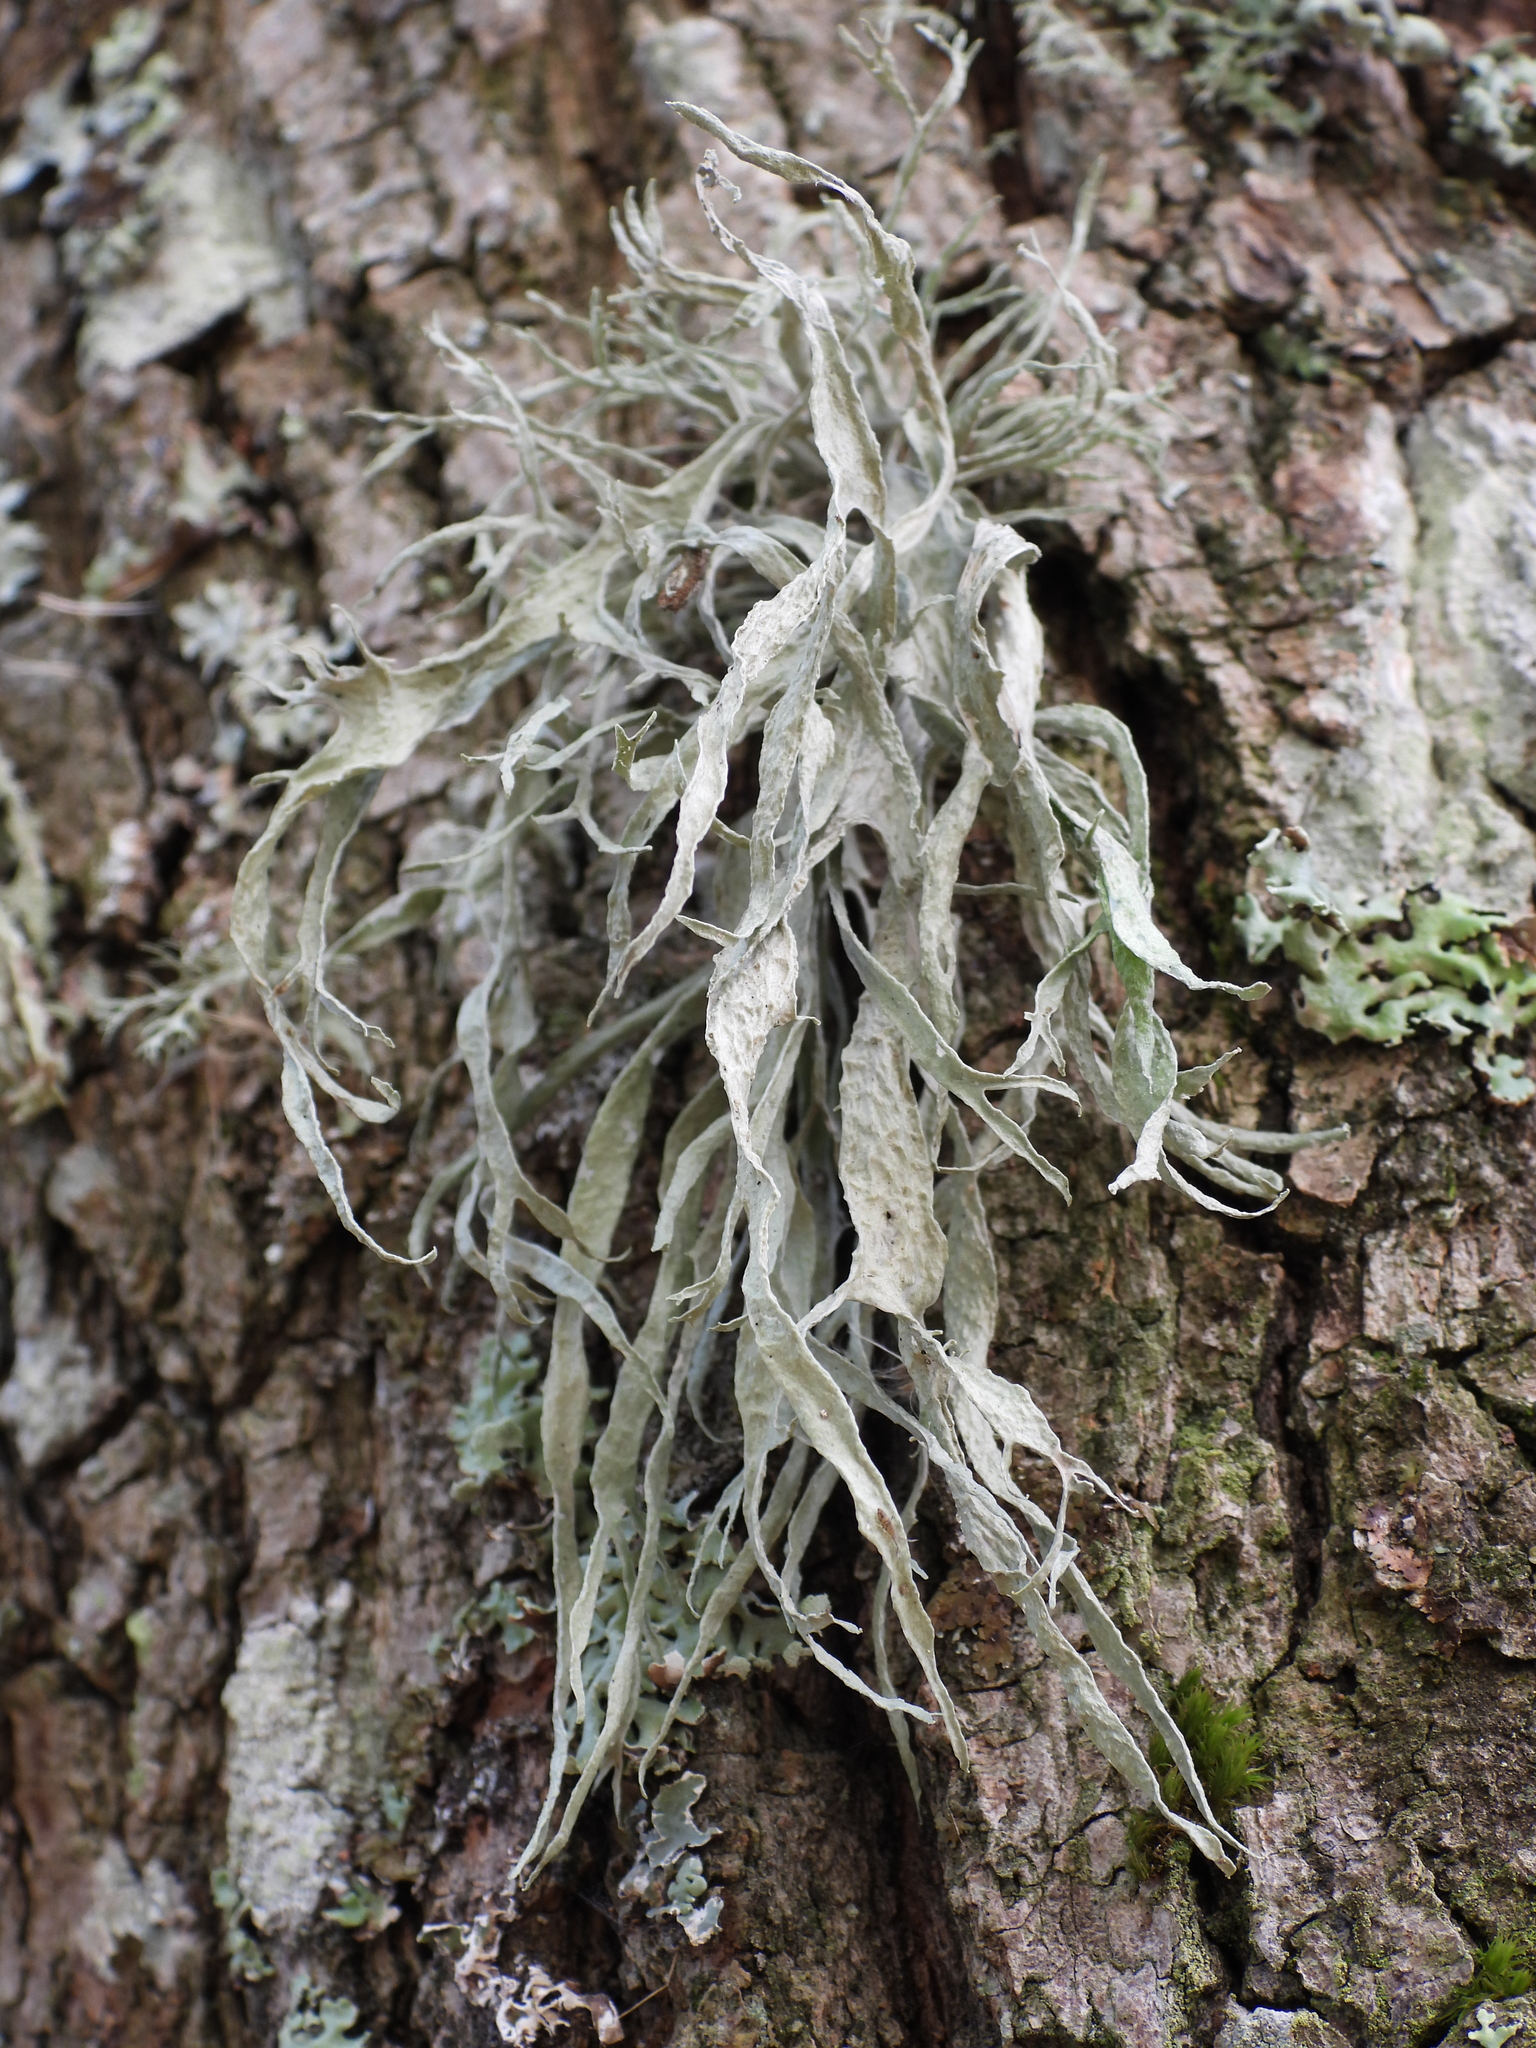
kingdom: Fungi
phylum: Ascomycota
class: Lecanoromycetes
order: Lecanorales
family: Ramalinaceae
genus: Ramalina
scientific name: Ramalina fraxinea
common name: Cartilage lichen
